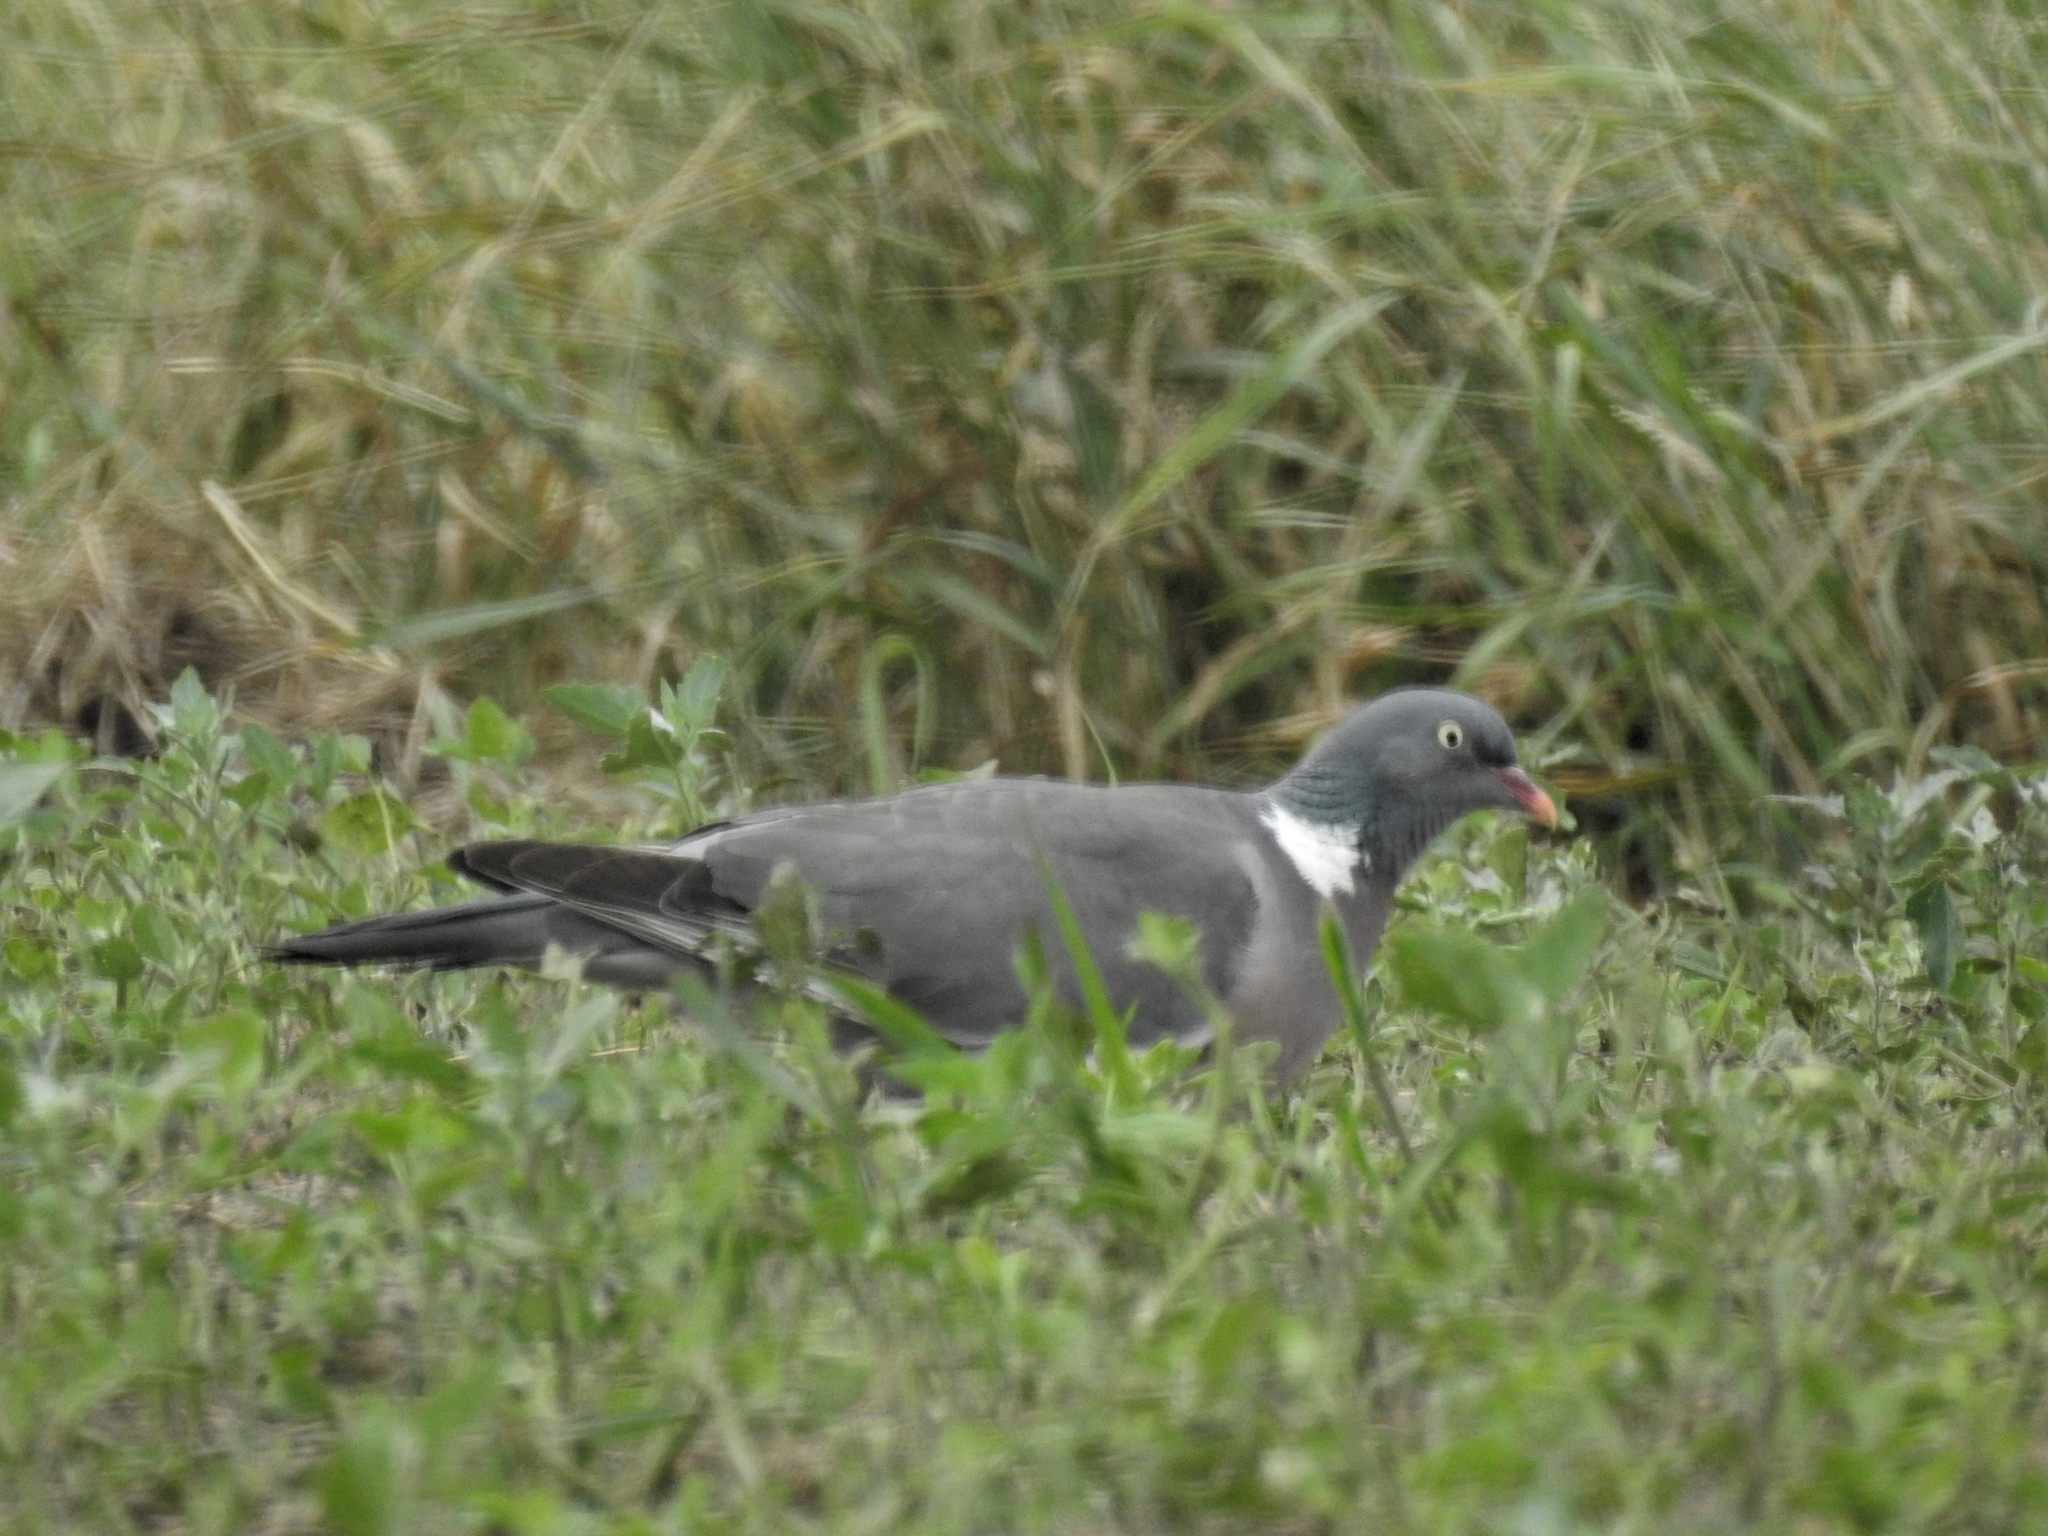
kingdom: Animalia
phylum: Chordata
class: Aves
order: Columbiformes
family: Columbidae
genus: Columba
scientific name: Columba palumbus
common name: Common wood pigeon
